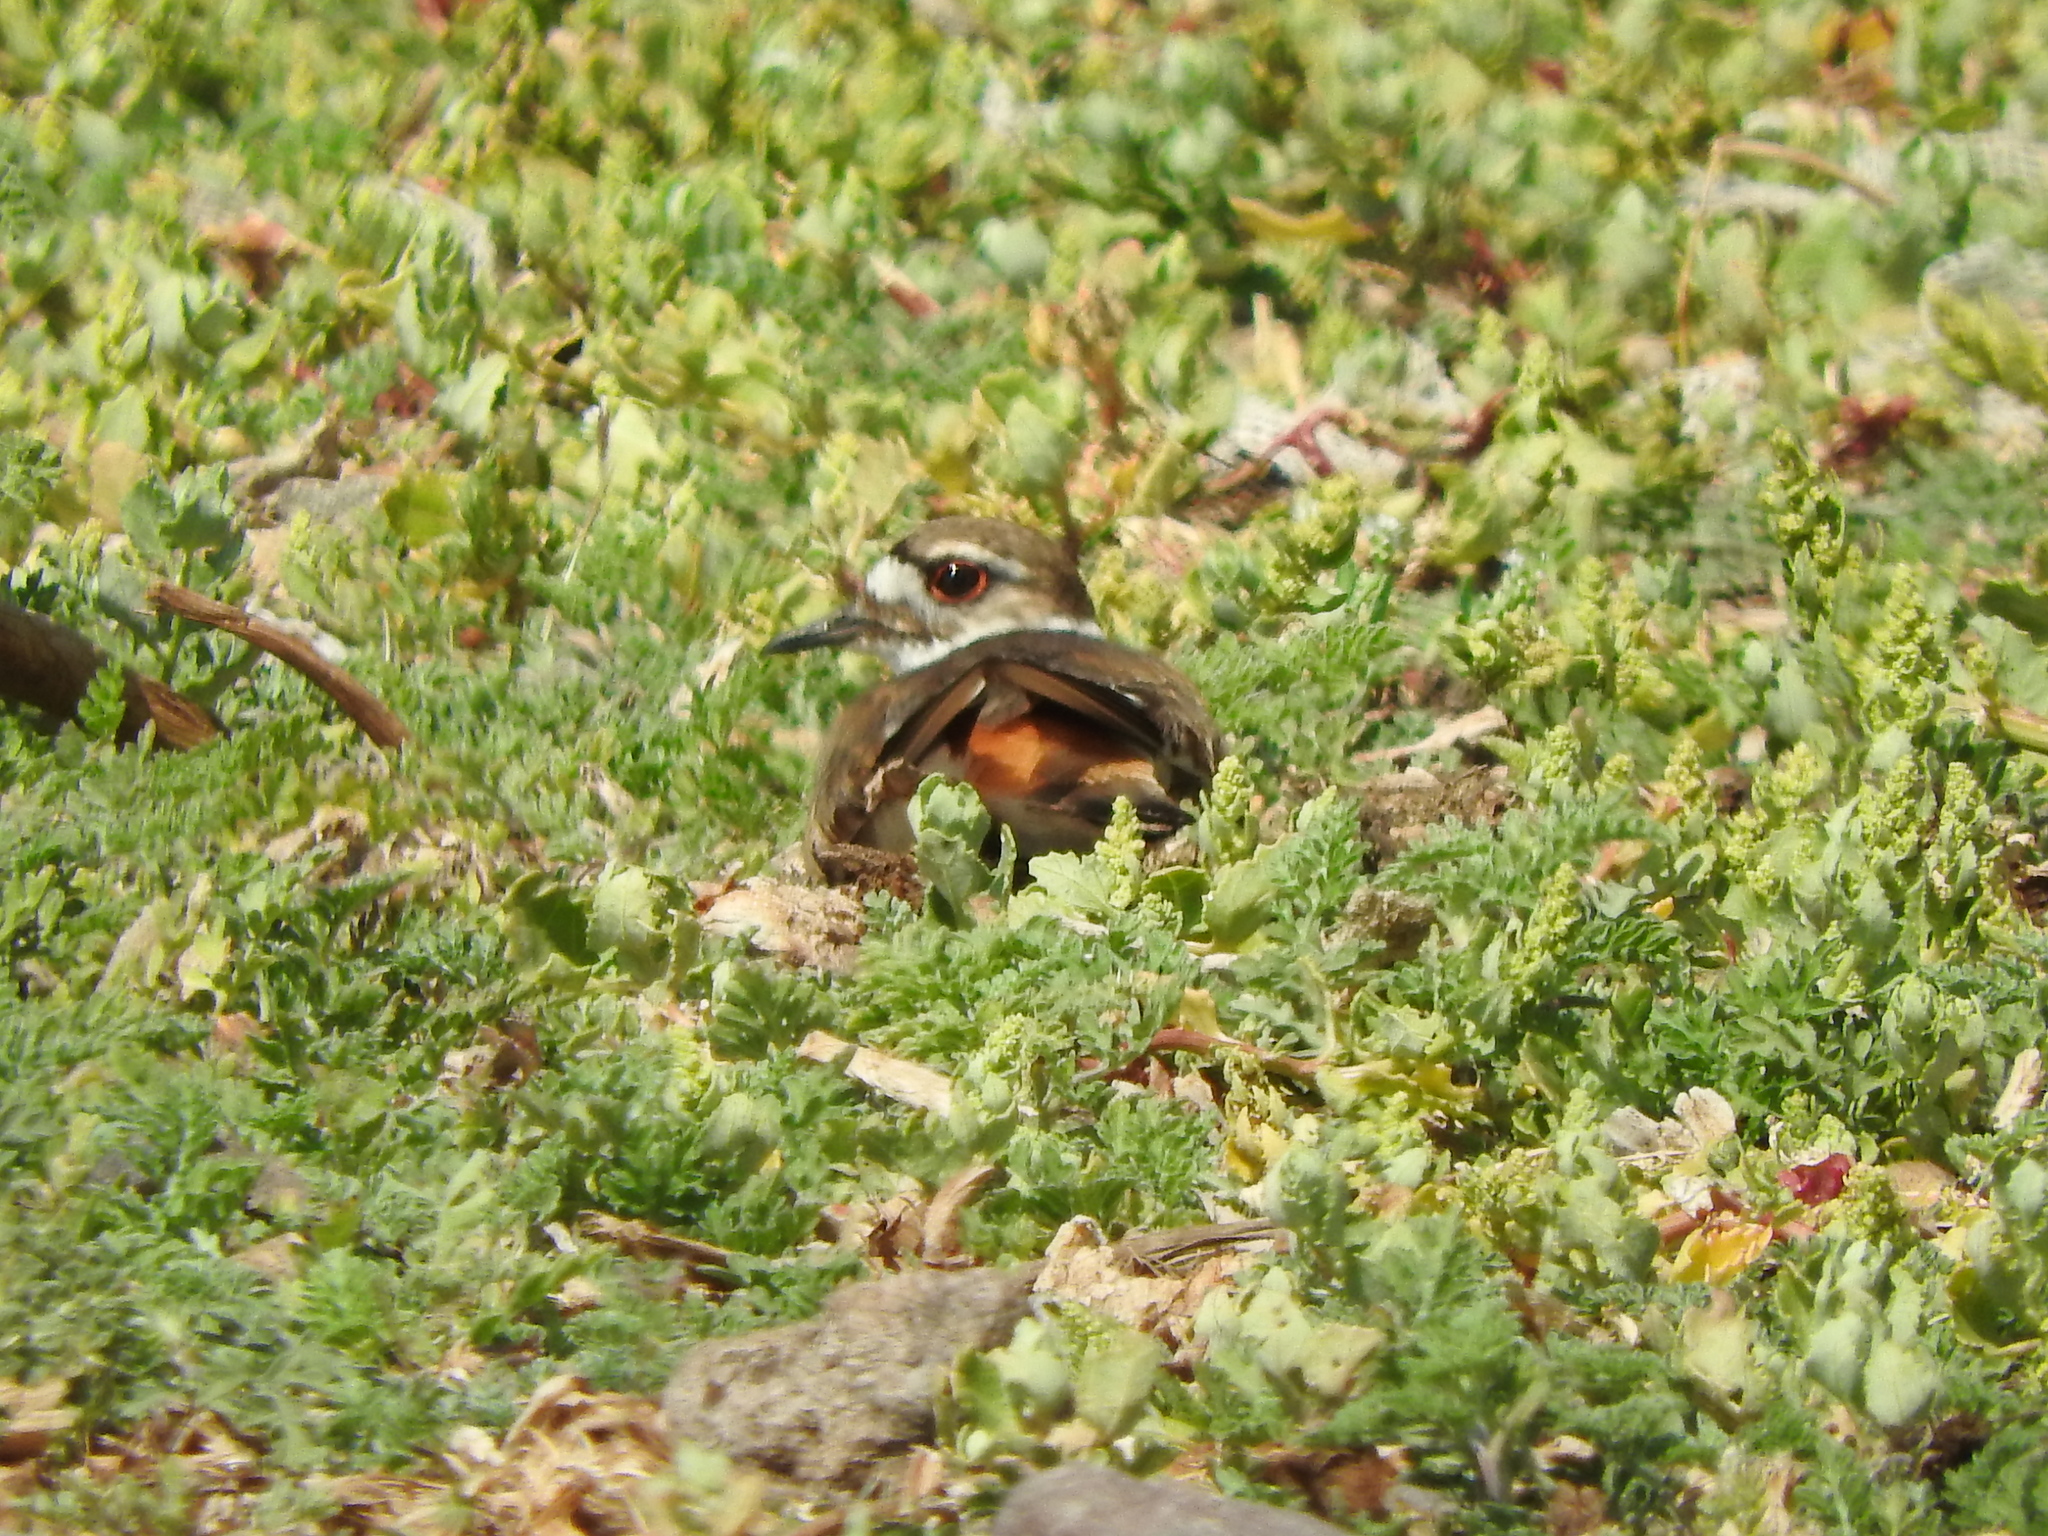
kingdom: Animalia
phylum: Chordata
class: Aves
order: Charadriiformes
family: Charadriidae
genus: Charadrius
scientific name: Charadrius vociferus
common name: Killdeer
